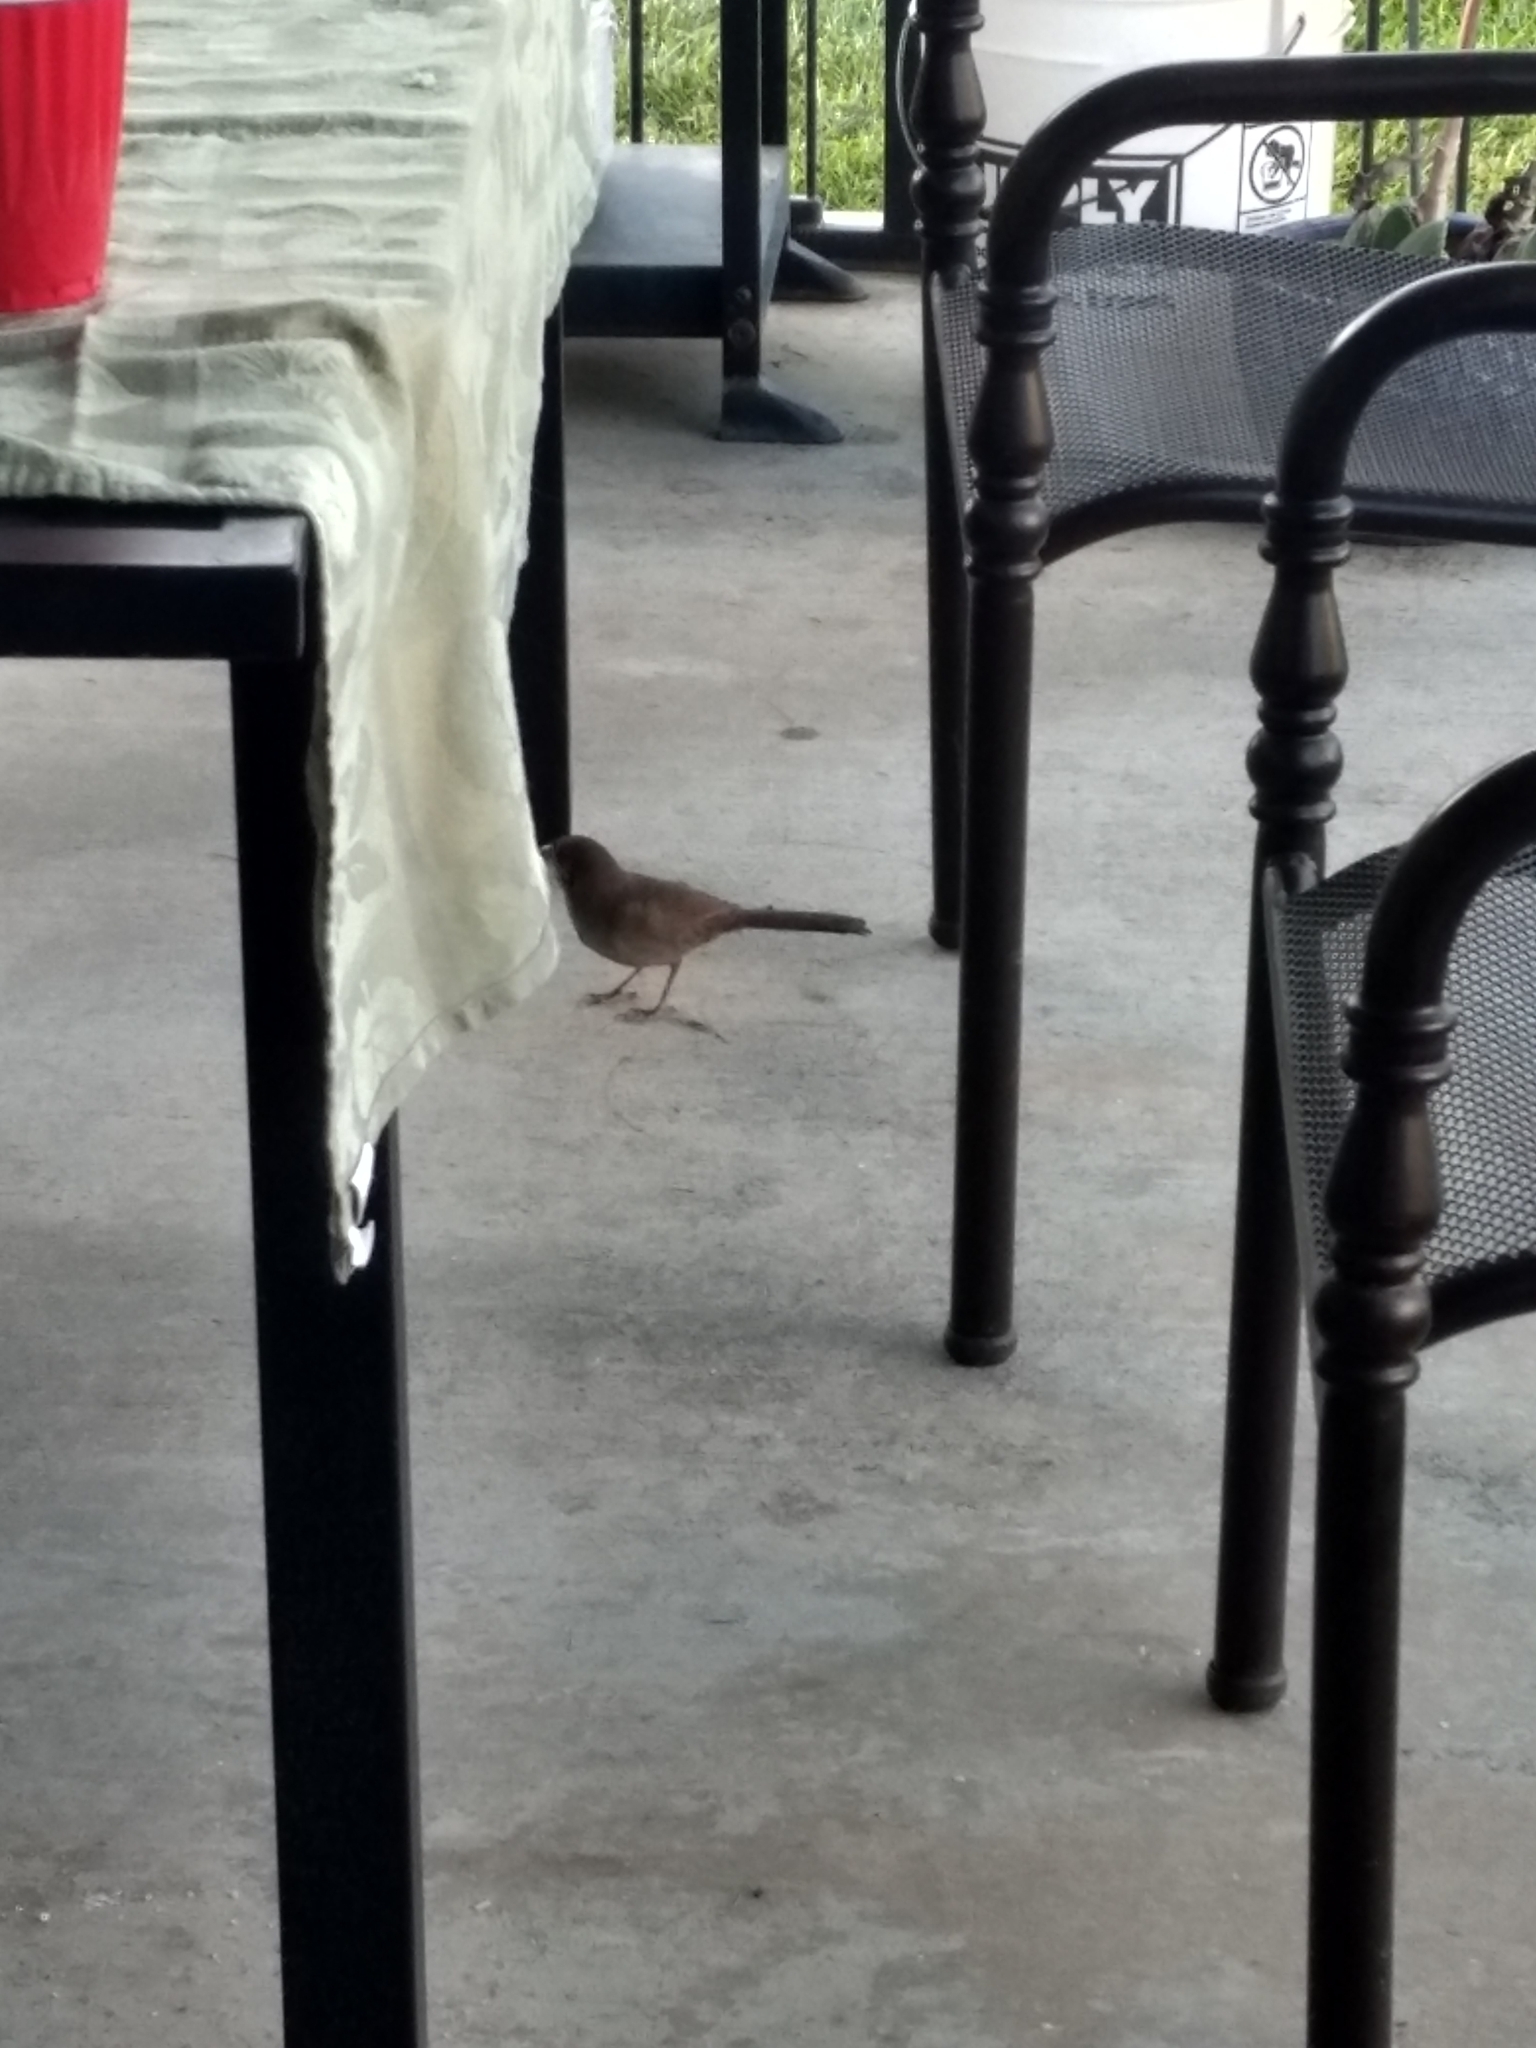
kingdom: Animalia
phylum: Chordata
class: Aves
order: Passeriformes
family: Passerellidae
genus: Melozone
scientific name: Melozone crissalis
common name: California towhee
